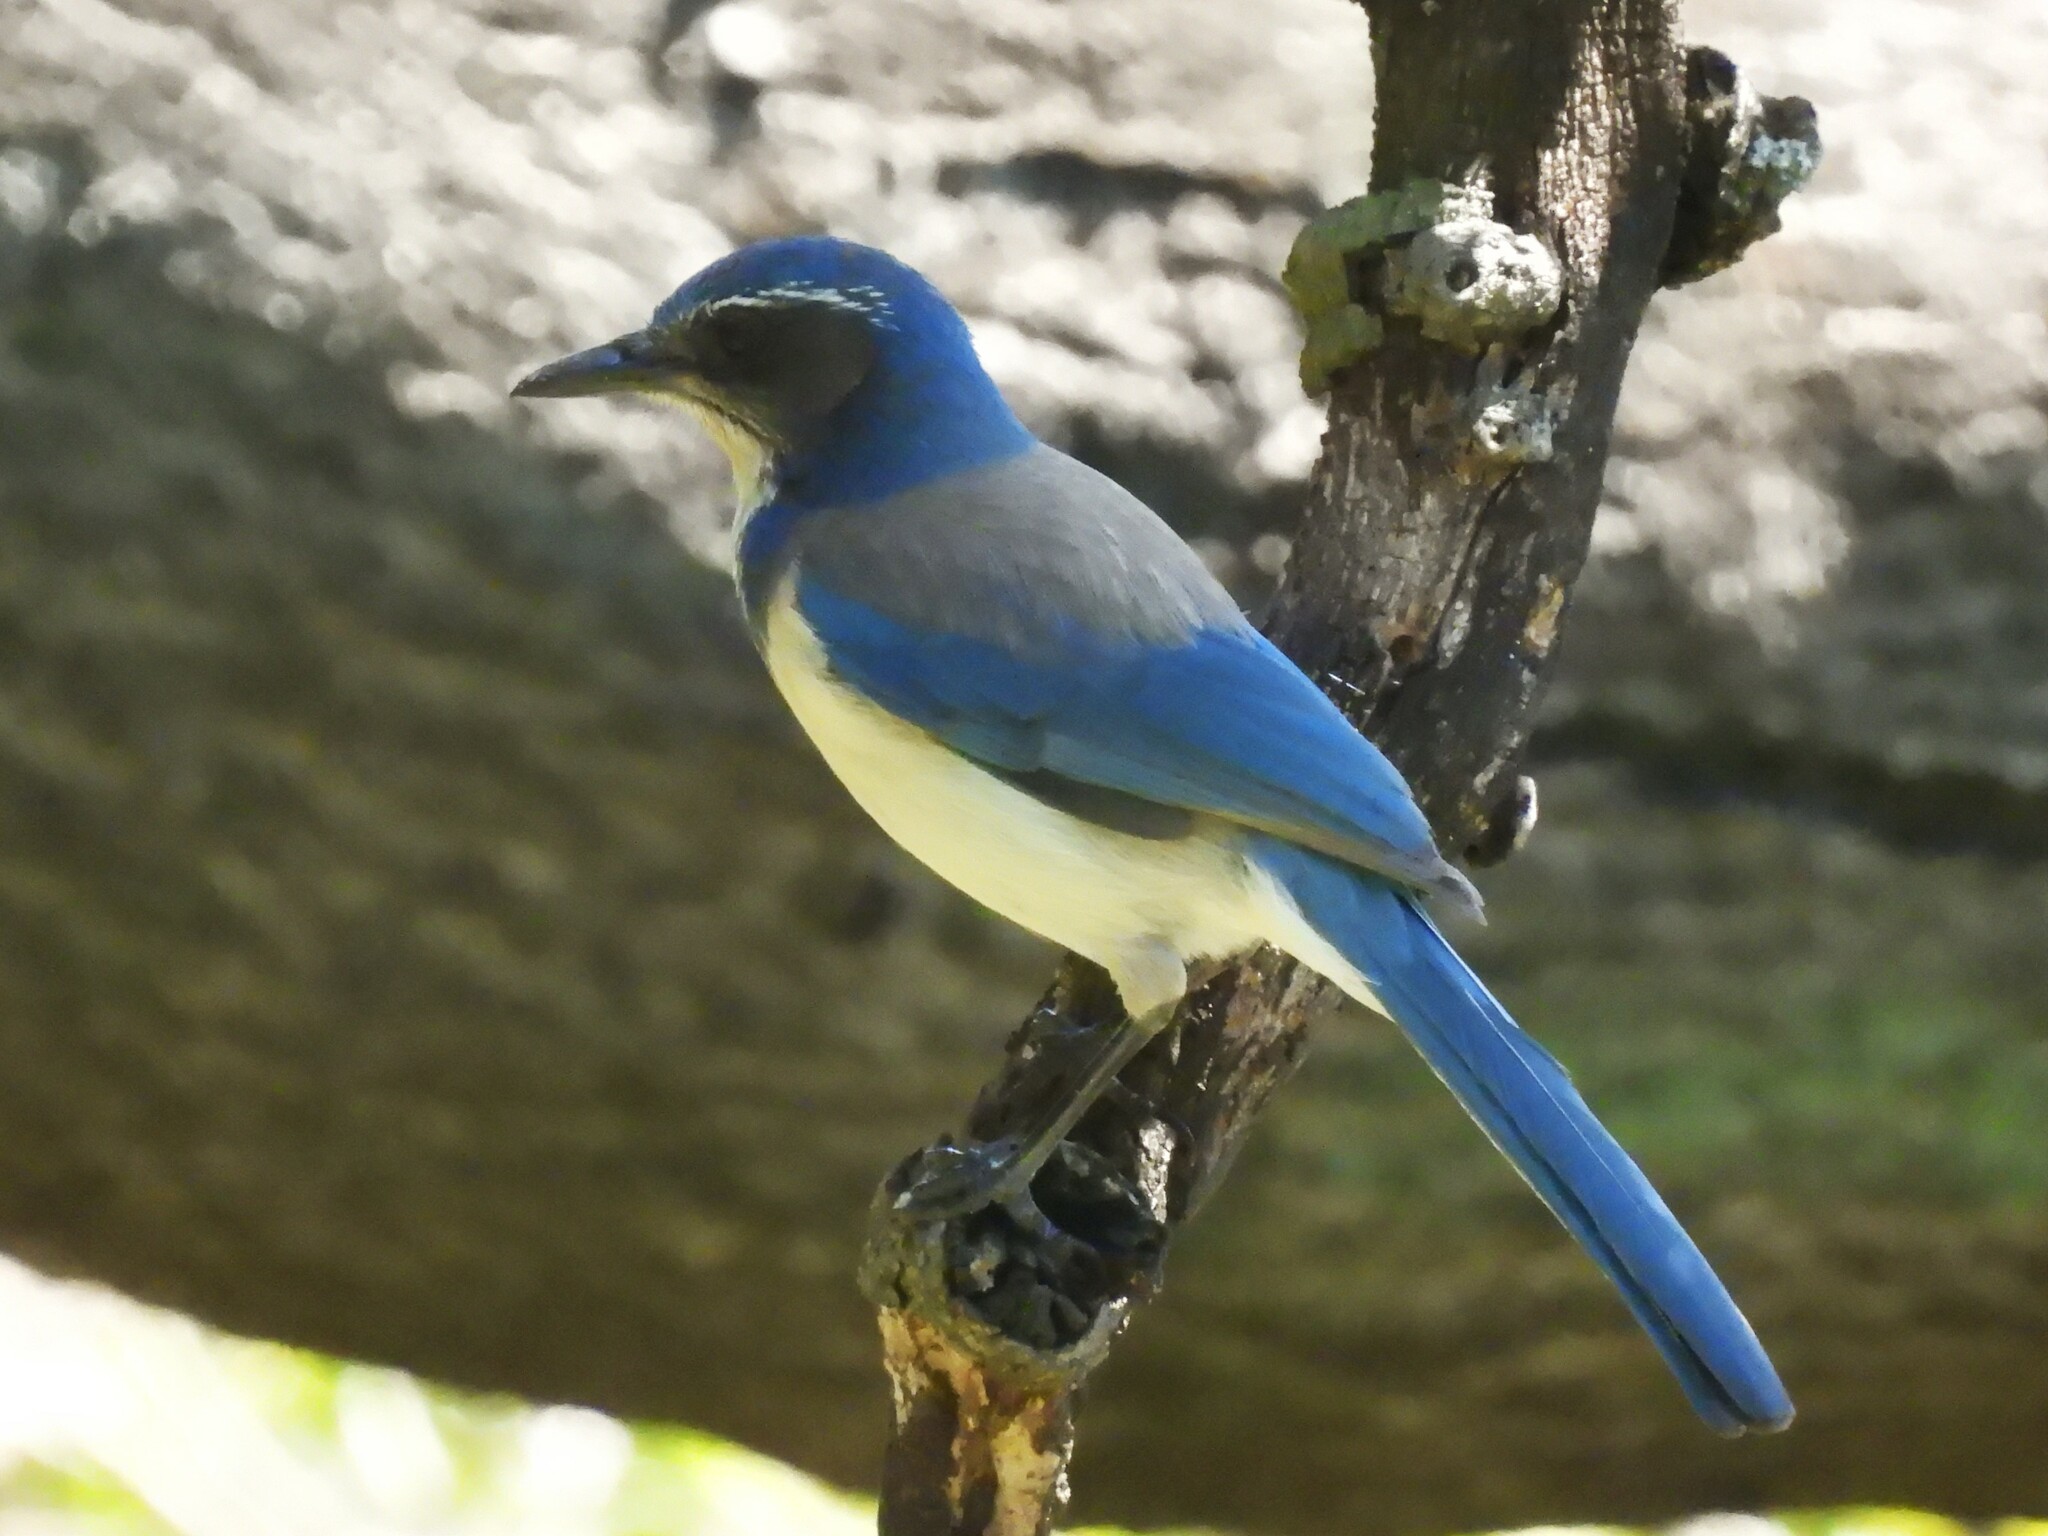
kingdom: Animalia
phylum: Chordata
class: Aves
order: Passeriformes
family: Corvidae
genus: Aphelocoma
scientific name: Aphelocoma californica
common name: California scrub-jay
